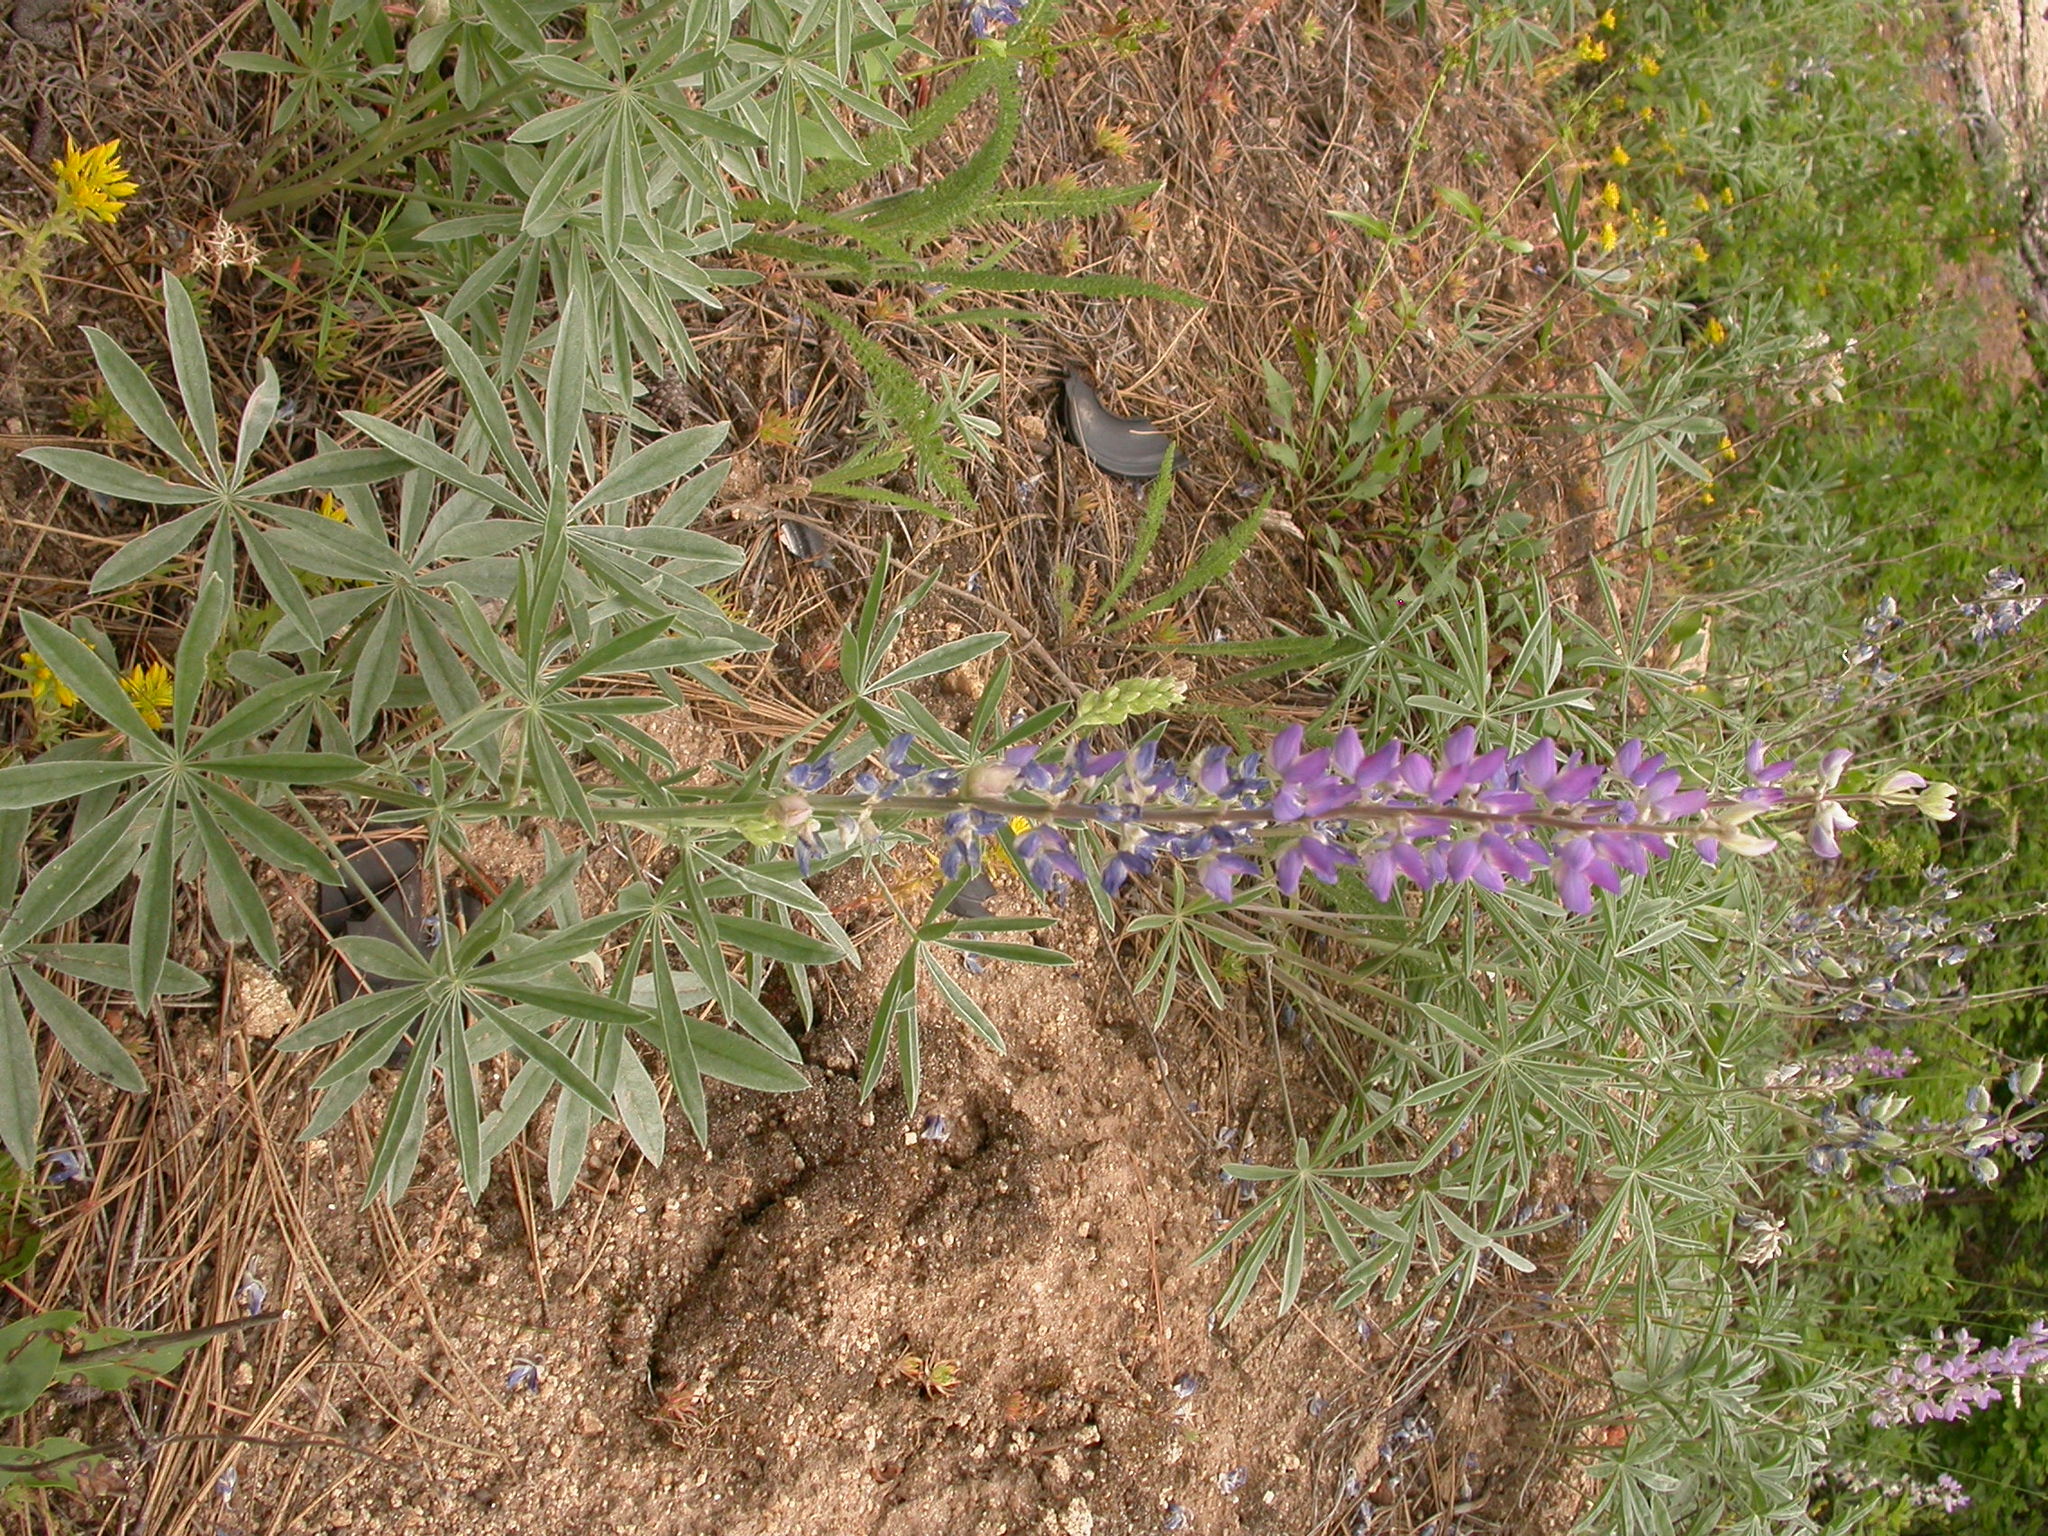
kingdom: Plantae
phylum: Tracheophyta
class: Magnoliopsida
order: Fabales
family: Fabaceae
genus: Lupinus
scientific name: Lupinus argenteus
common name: Silvery lupine
